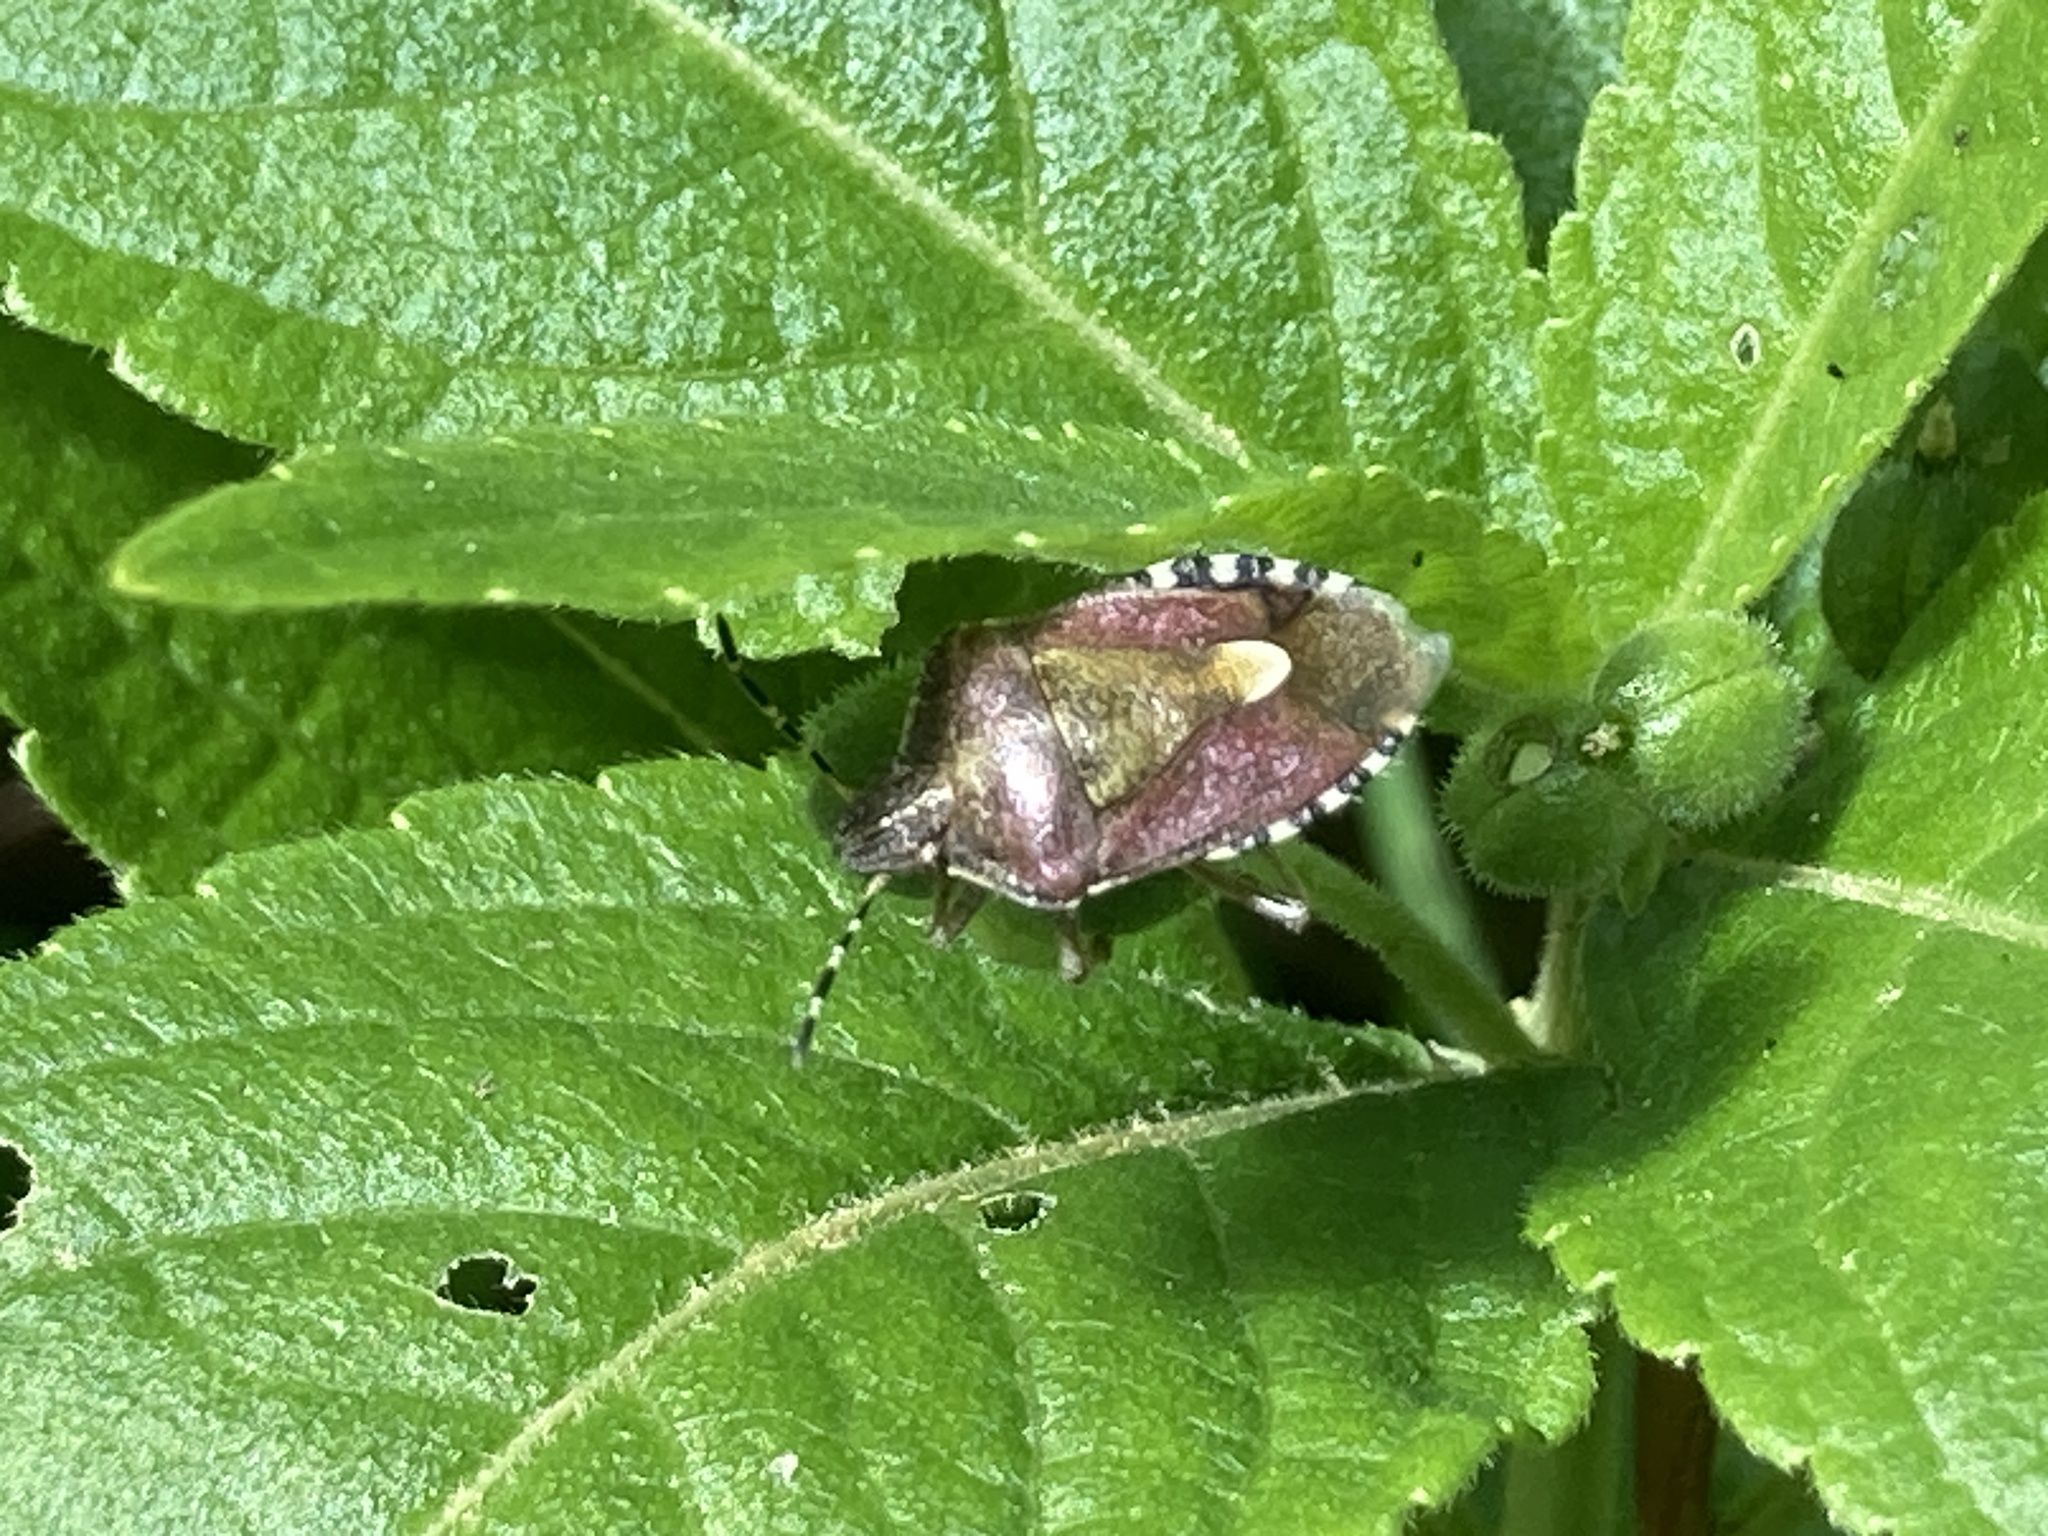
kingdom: Animalia
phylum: Arthropoda
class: Insecta
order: Hemiptera
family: Pentatomidae
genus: Dolycoris
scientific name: Dolycoris baccarum
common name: Sloe bug
